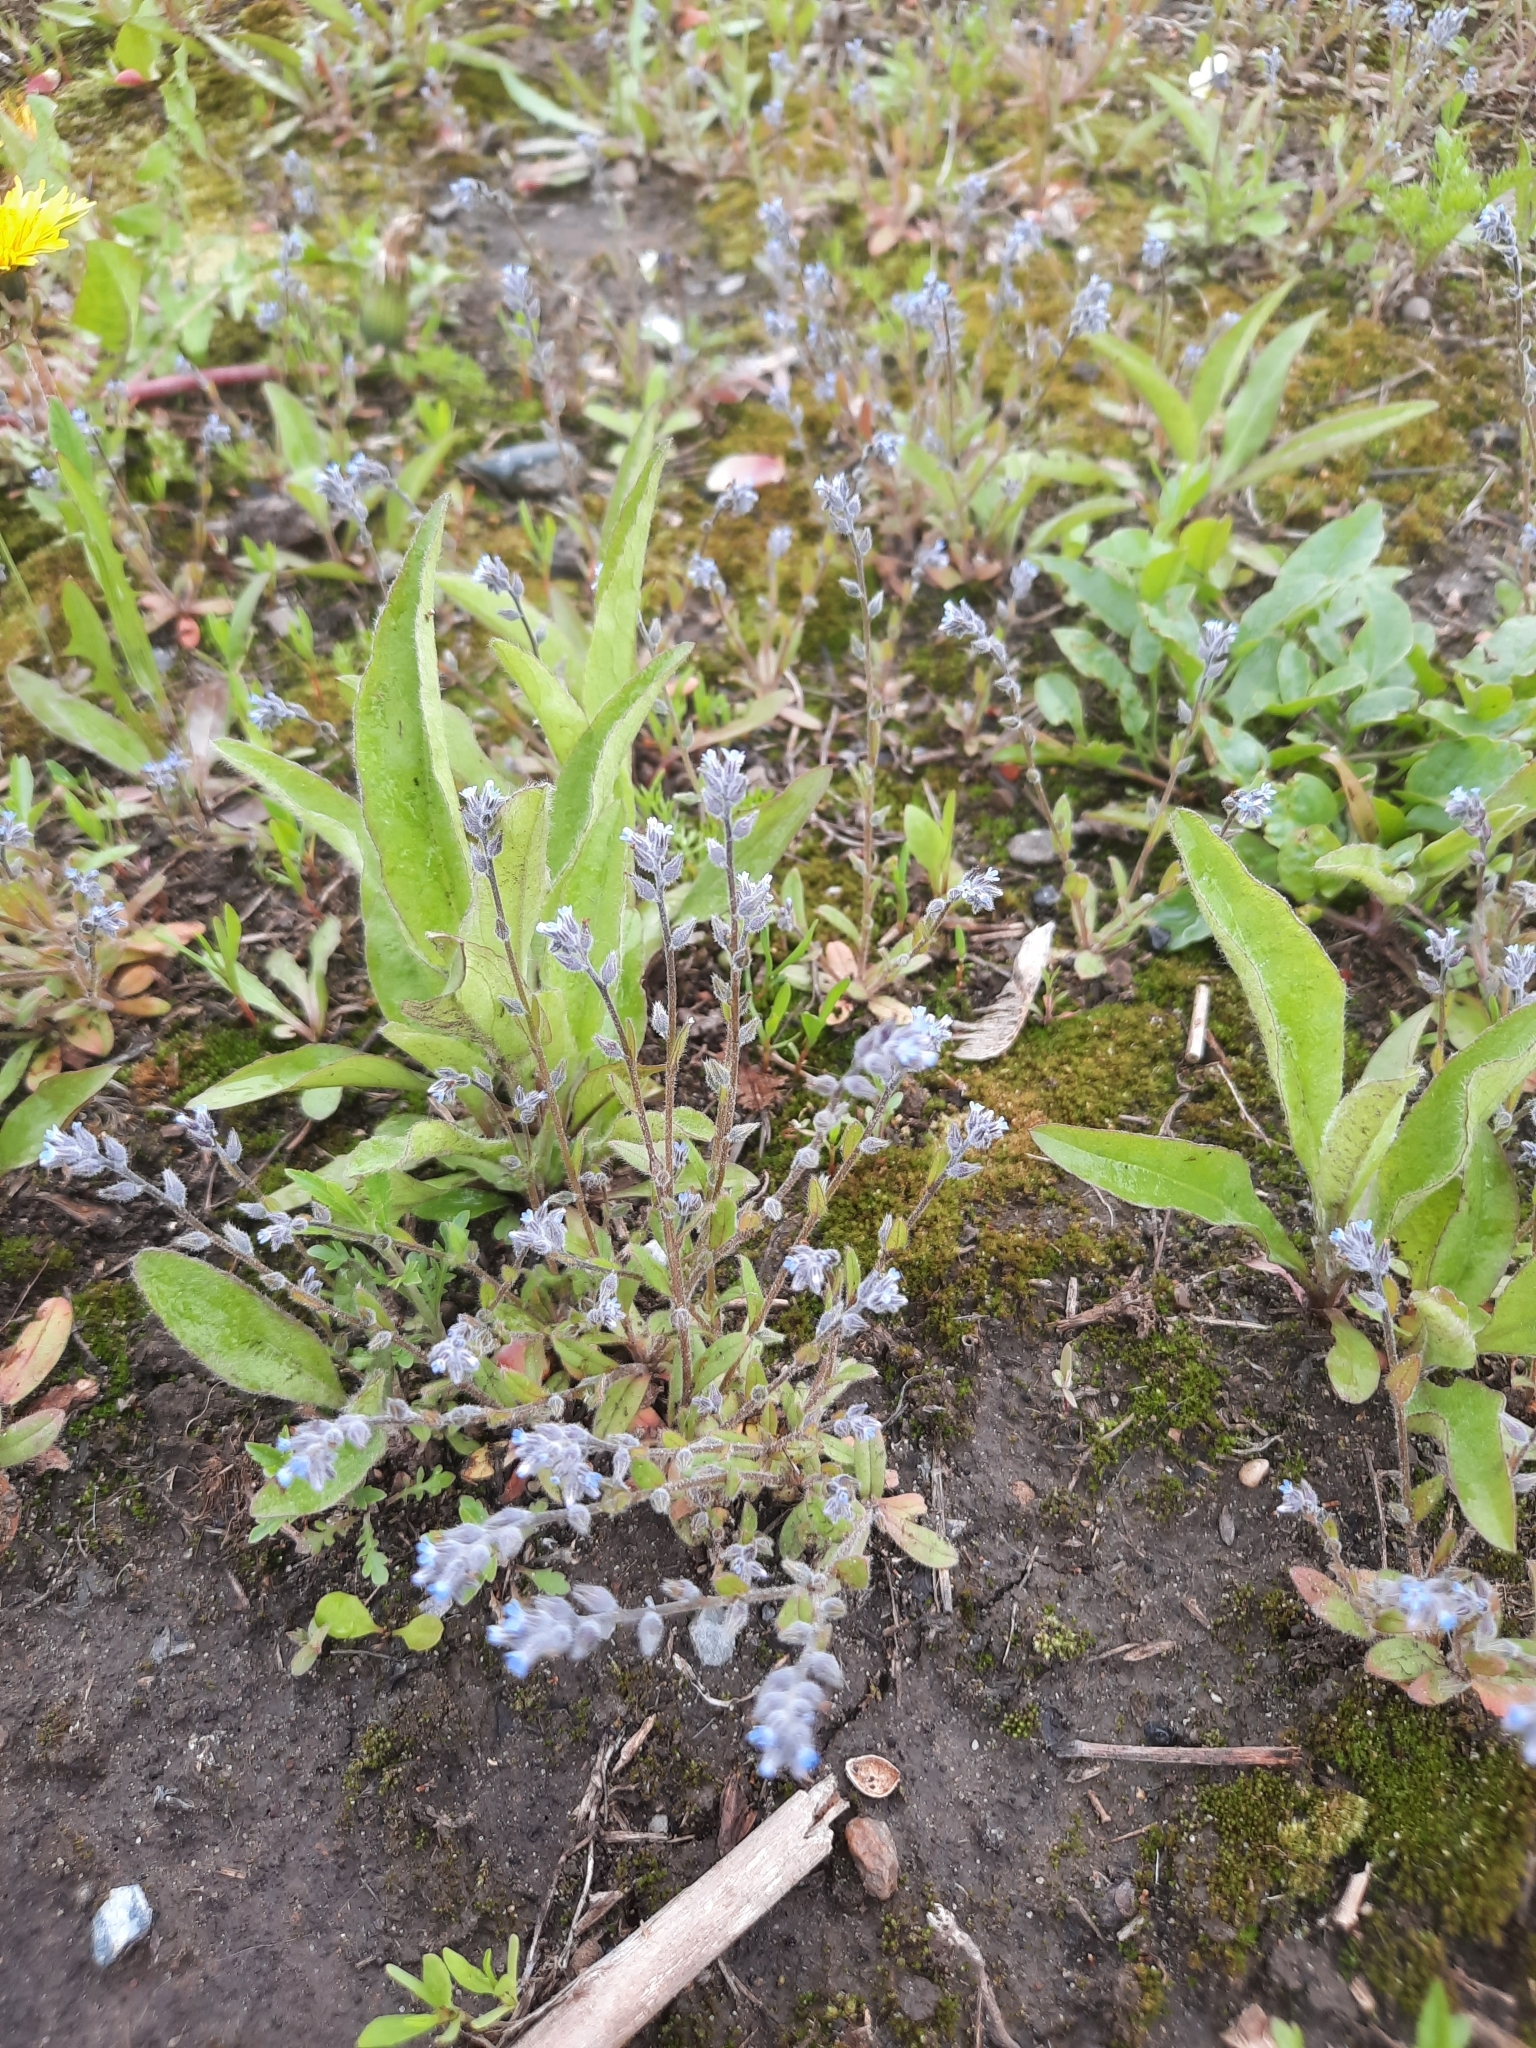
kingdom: Plantae
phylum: Tracheophyta
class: Magnoliopsida
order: Boraginales
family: Boraginaceae
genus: Myosotis
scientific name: Myosotis stricta
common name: Strict forget-me-not
